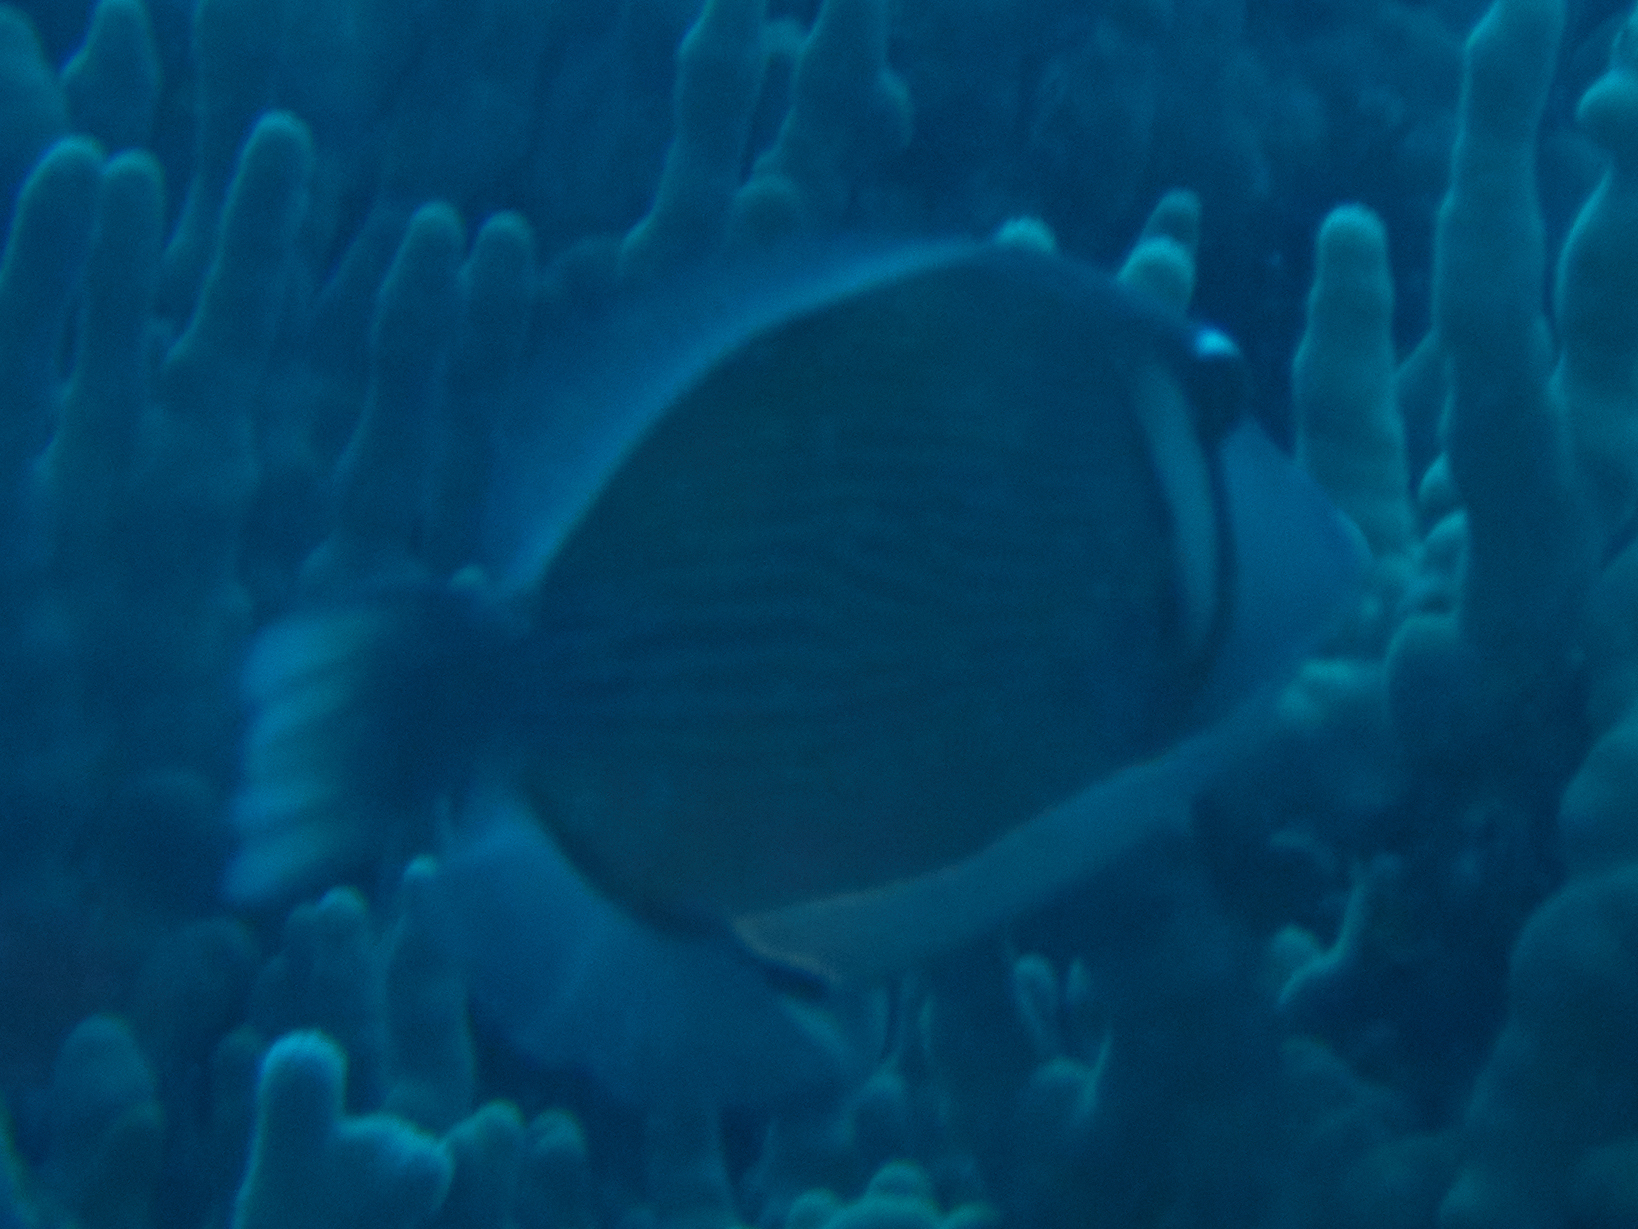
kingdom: Animalia
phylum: Chordata
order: Tetraodontiformes
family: Balistidae
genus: Sufflamen
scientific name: Sufflamen bursa
